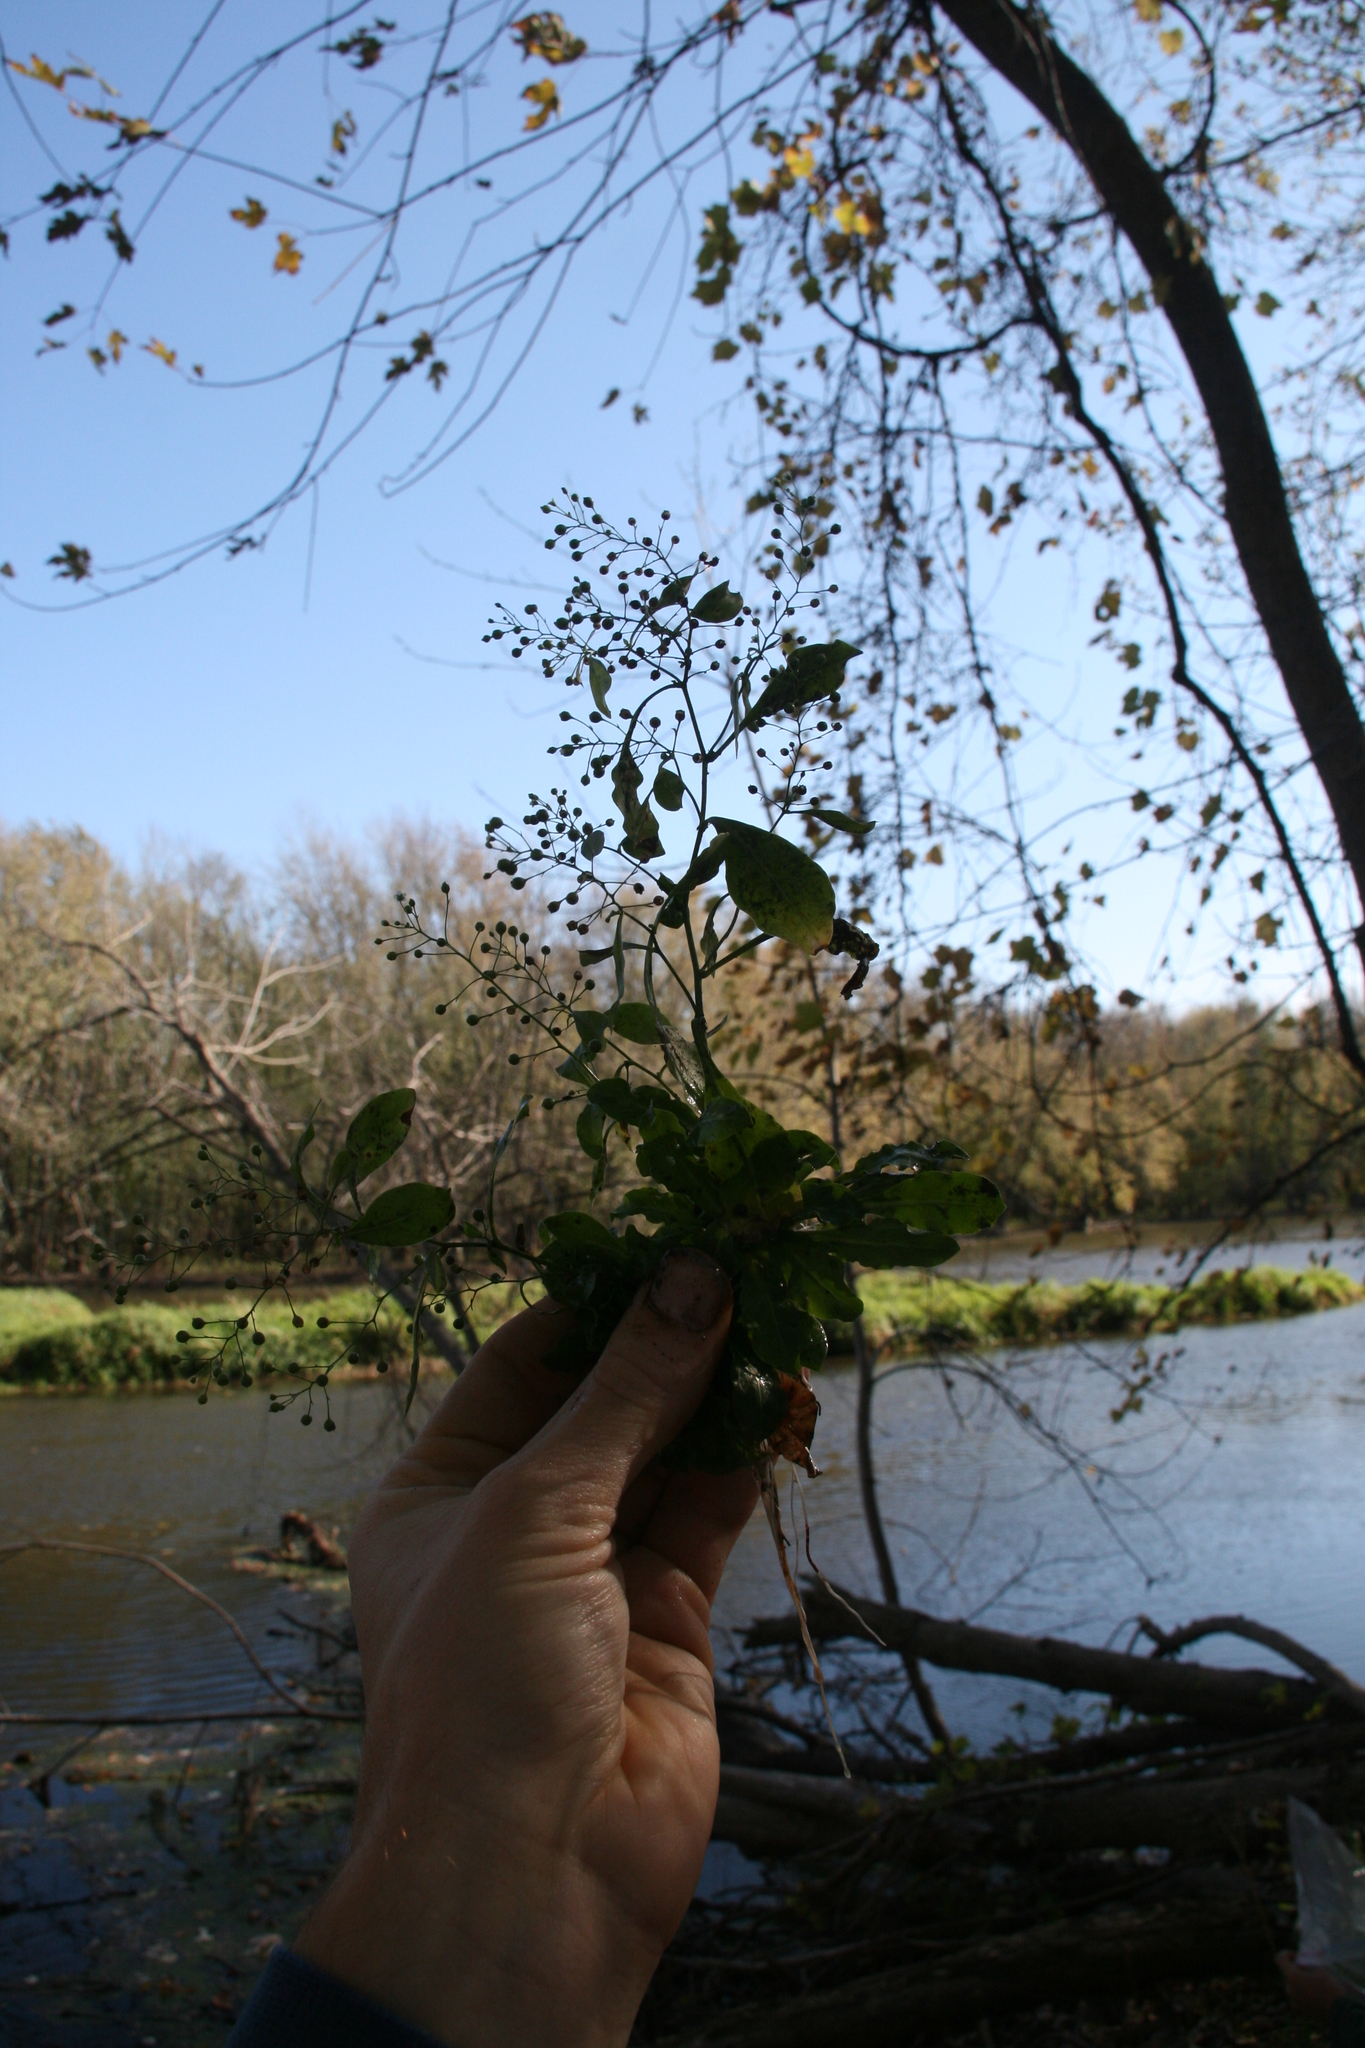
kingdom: Plantae
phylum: Tracheophyta
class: Magnoliopsida
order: Ericales
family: Primulaceae
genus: Samolus
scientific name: Samolus parviflorus
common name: False water pimpernel
